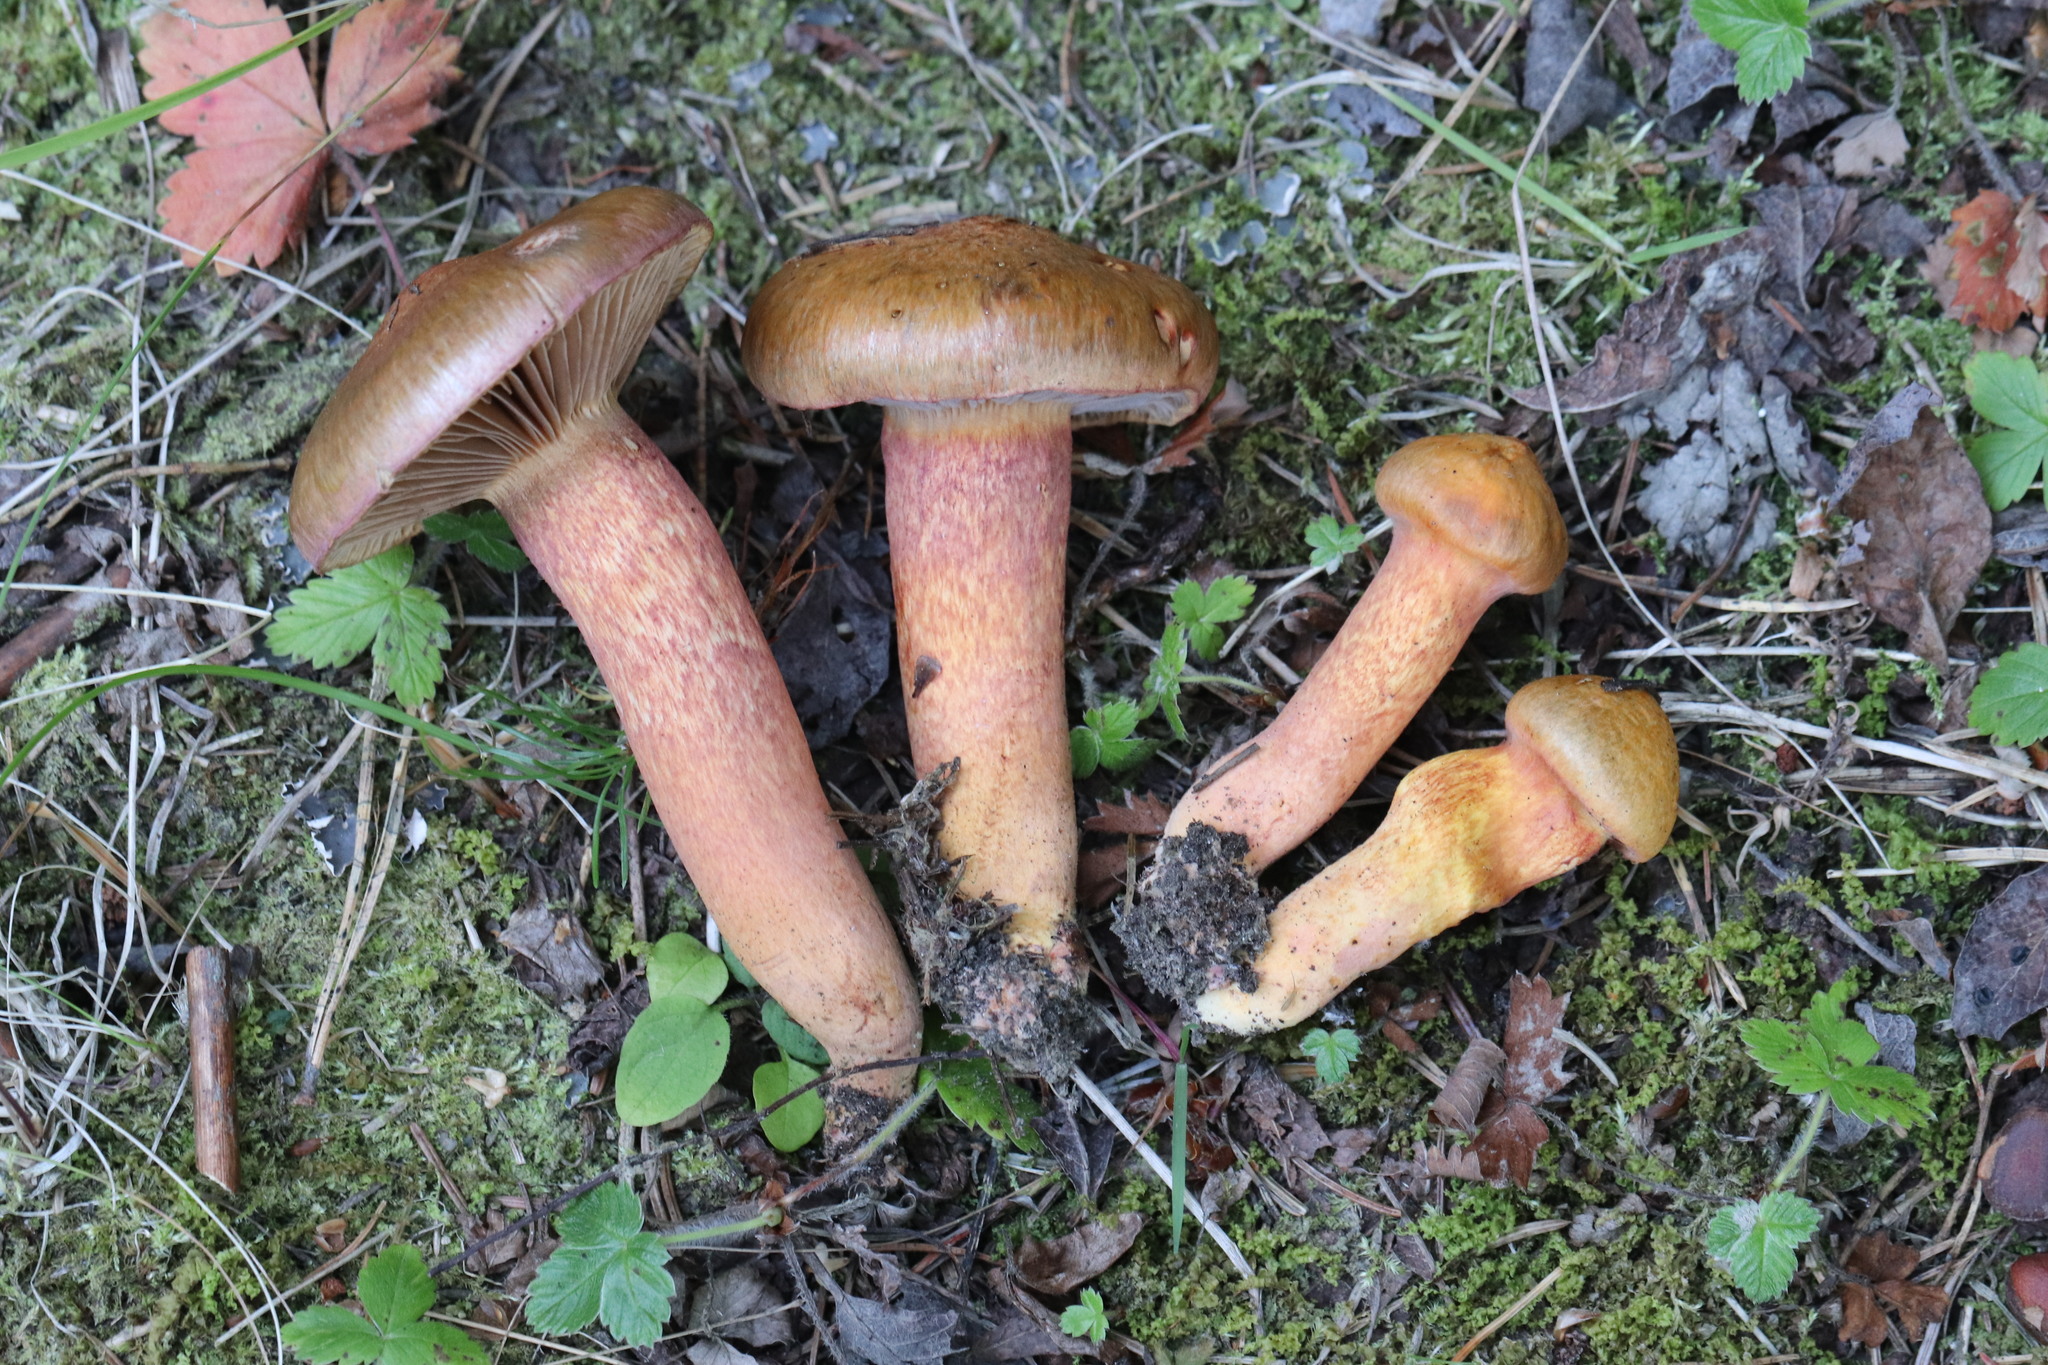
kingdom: Fungi
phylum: Basidiomycota
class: Agaricomycetes
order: Boletales
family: Gomphidiaceae
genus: Chroogomphus
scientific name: Chroogomphus rutilus
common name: Copper spike
